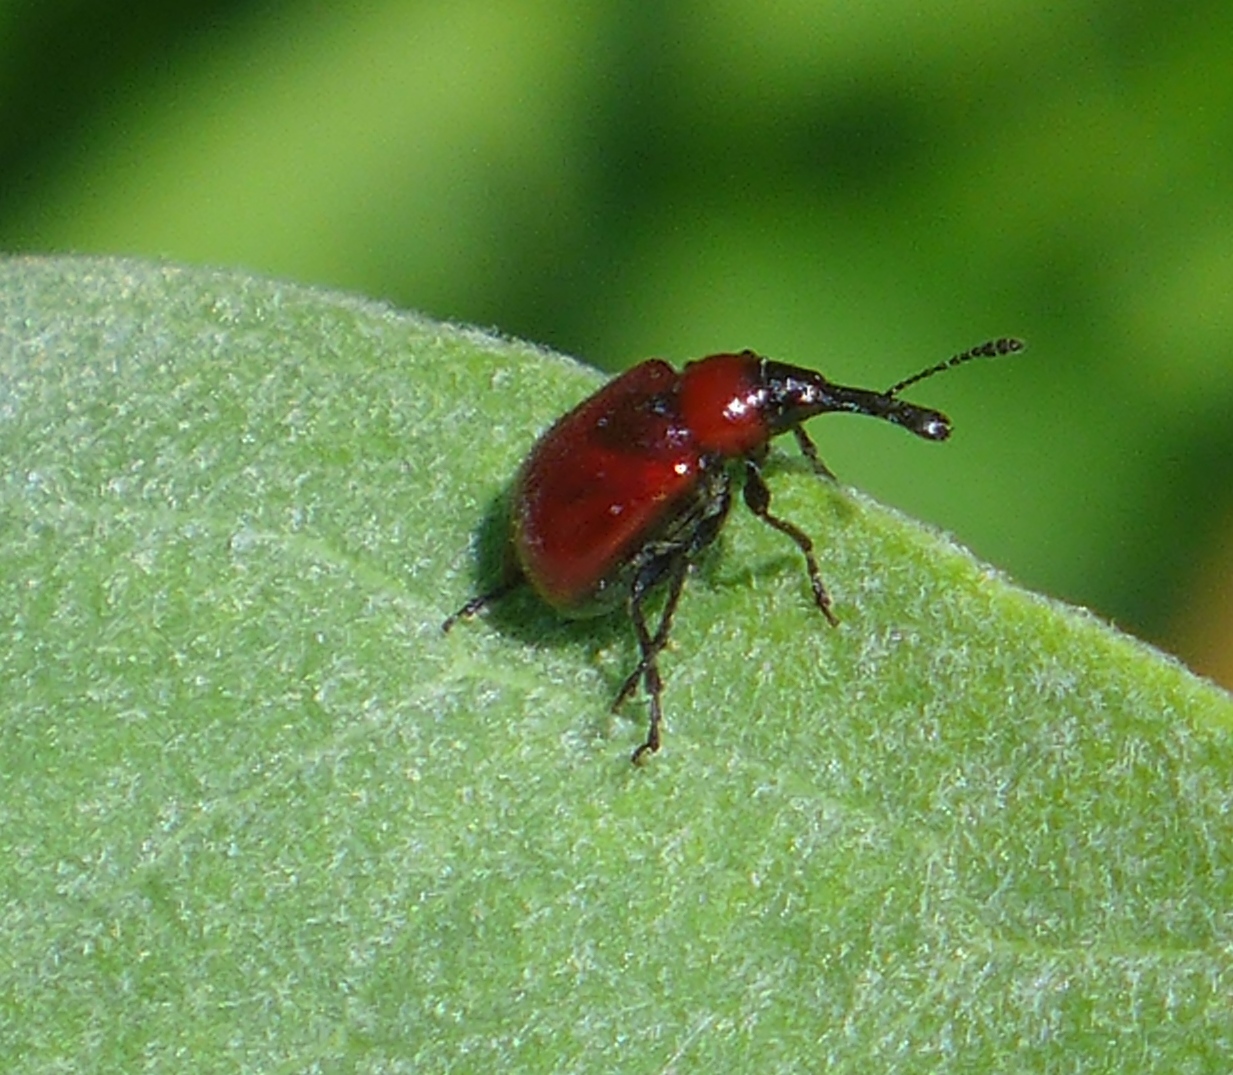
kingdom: Animalia
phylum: Arthropoda
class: Insecta
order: Coleoptera
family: Attelabidae
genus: Merhynchites
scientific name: Merhynchites wickhami
